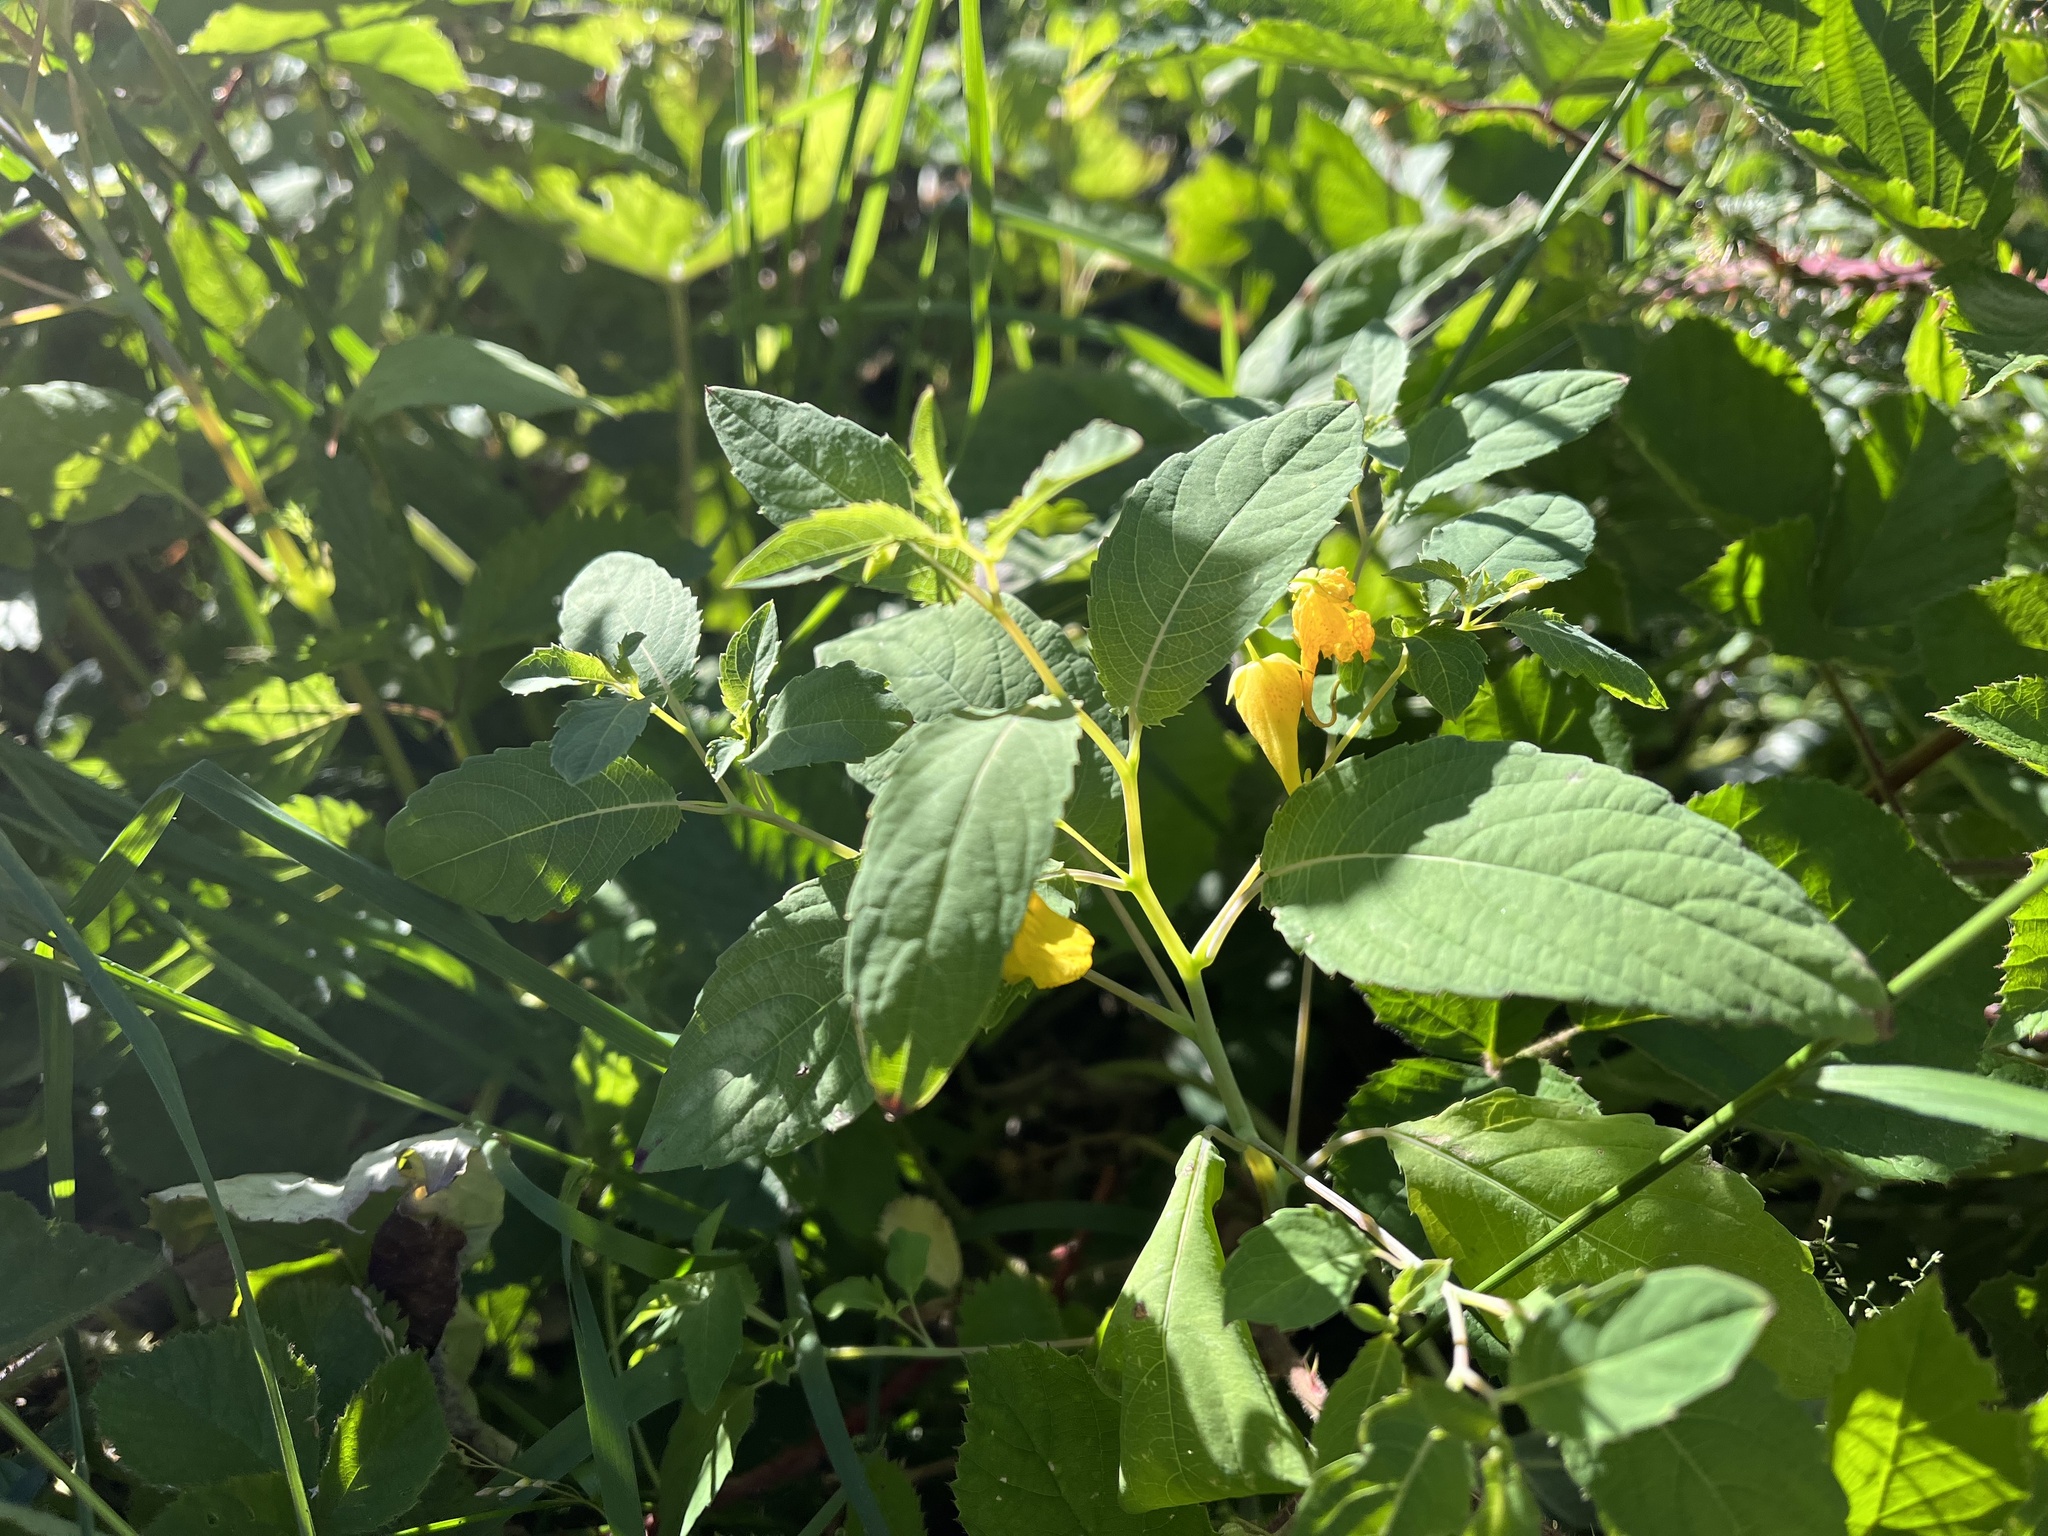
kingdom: Plantae
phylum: Tracheophyta
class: Magnoliopsida
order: Ericales
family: Balsaminaceae
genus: Impatiens
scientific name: Impatiens noli-tangere
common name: Touch-me-not balsam
